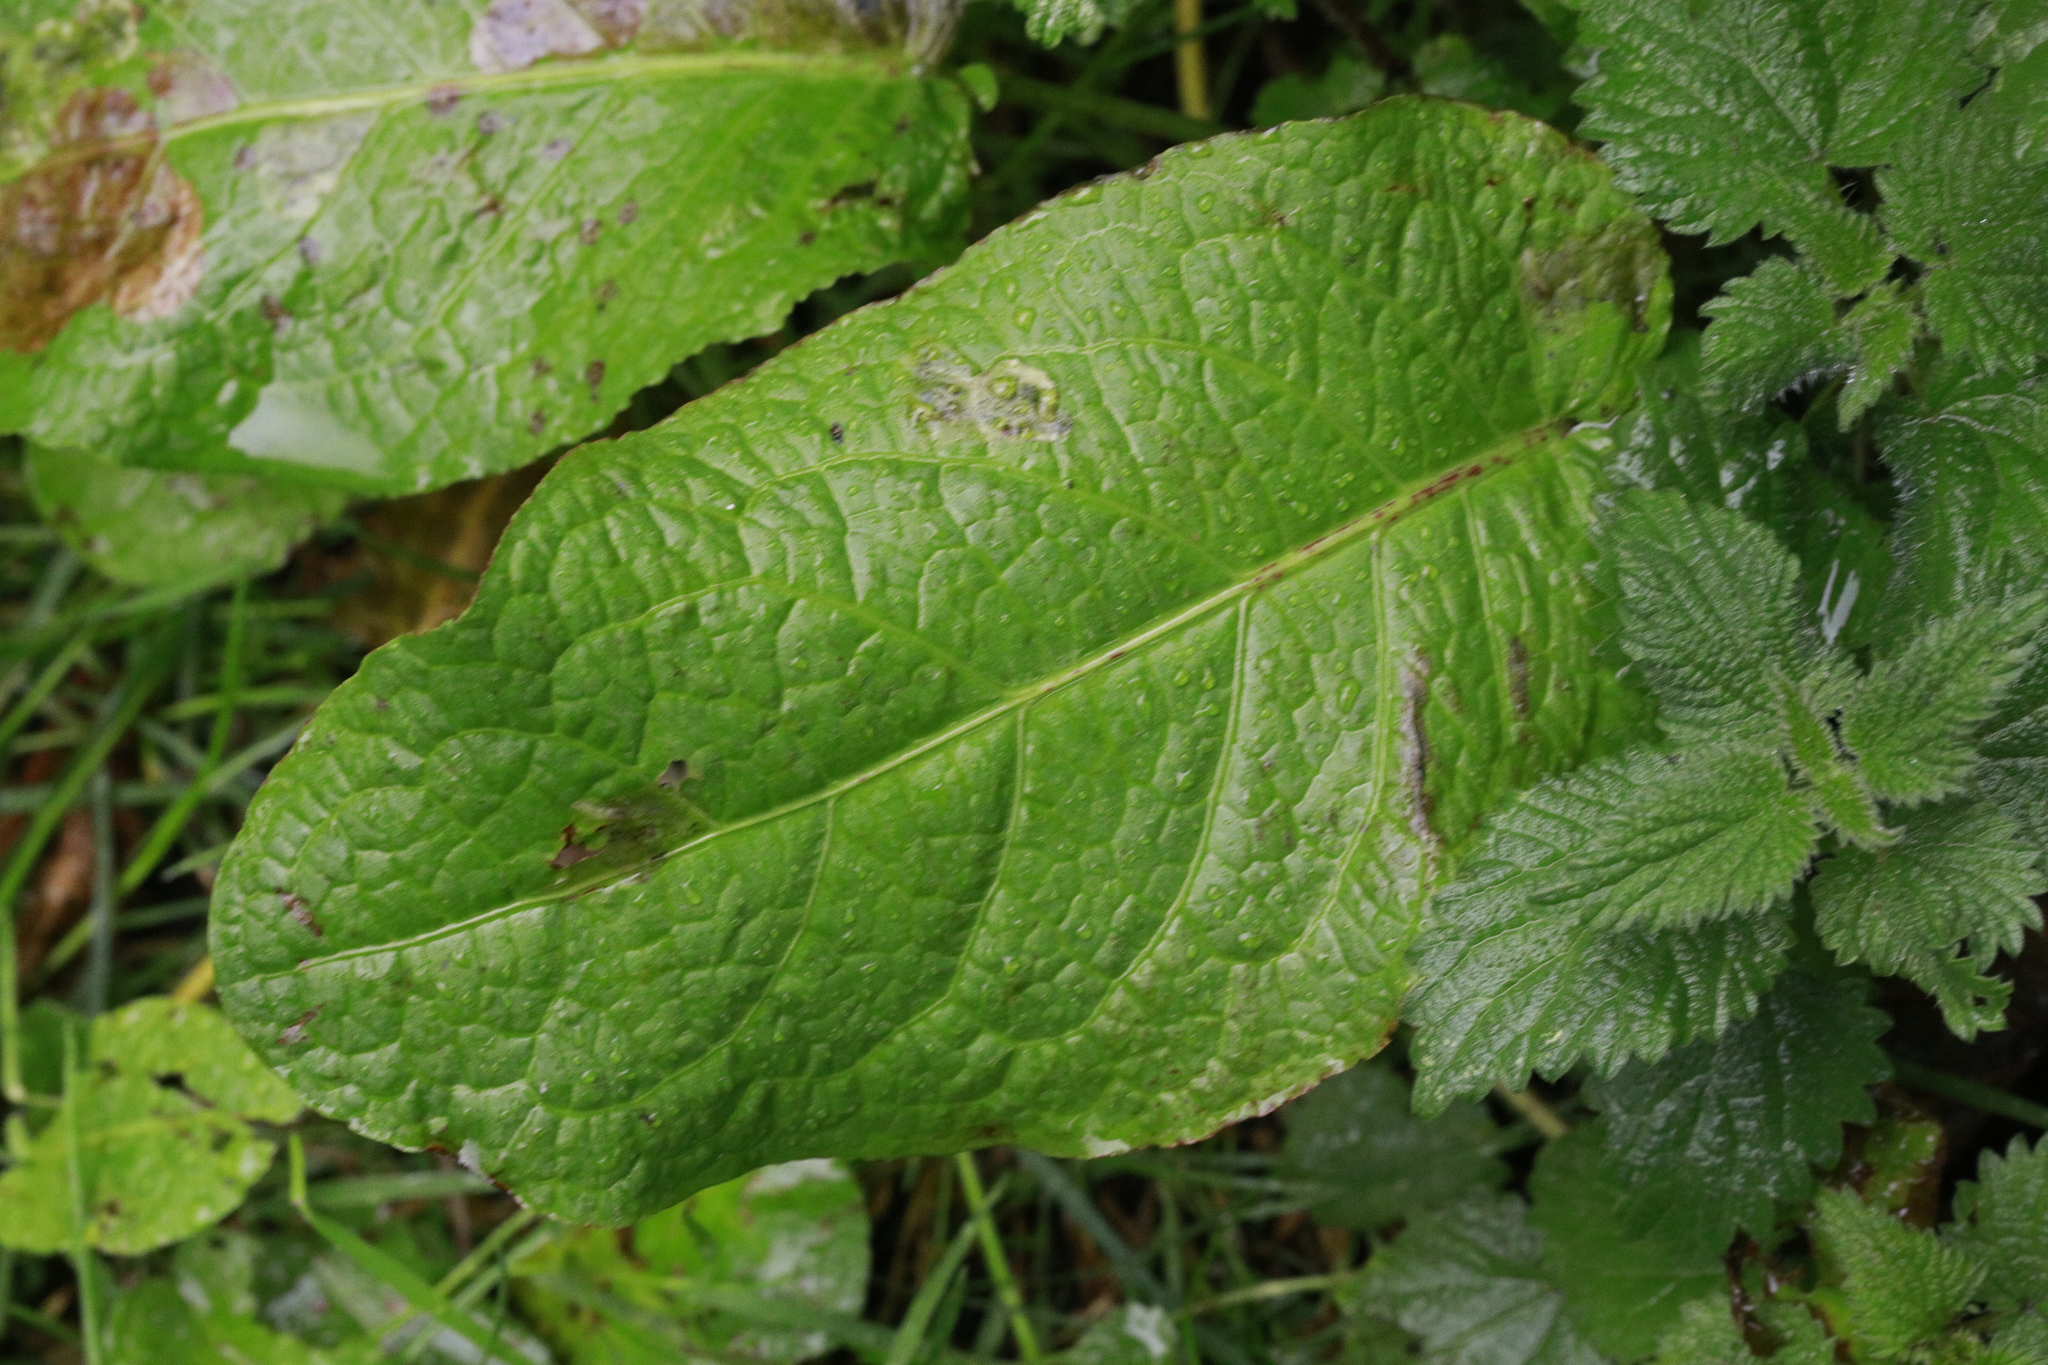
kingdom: Plantae
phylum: Tracheophyta
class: Magnoliopsida
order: Caryophyllales
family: Polygonaceae
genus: Rumex
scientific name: Rumex obtusifolius
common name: Bitter dock
